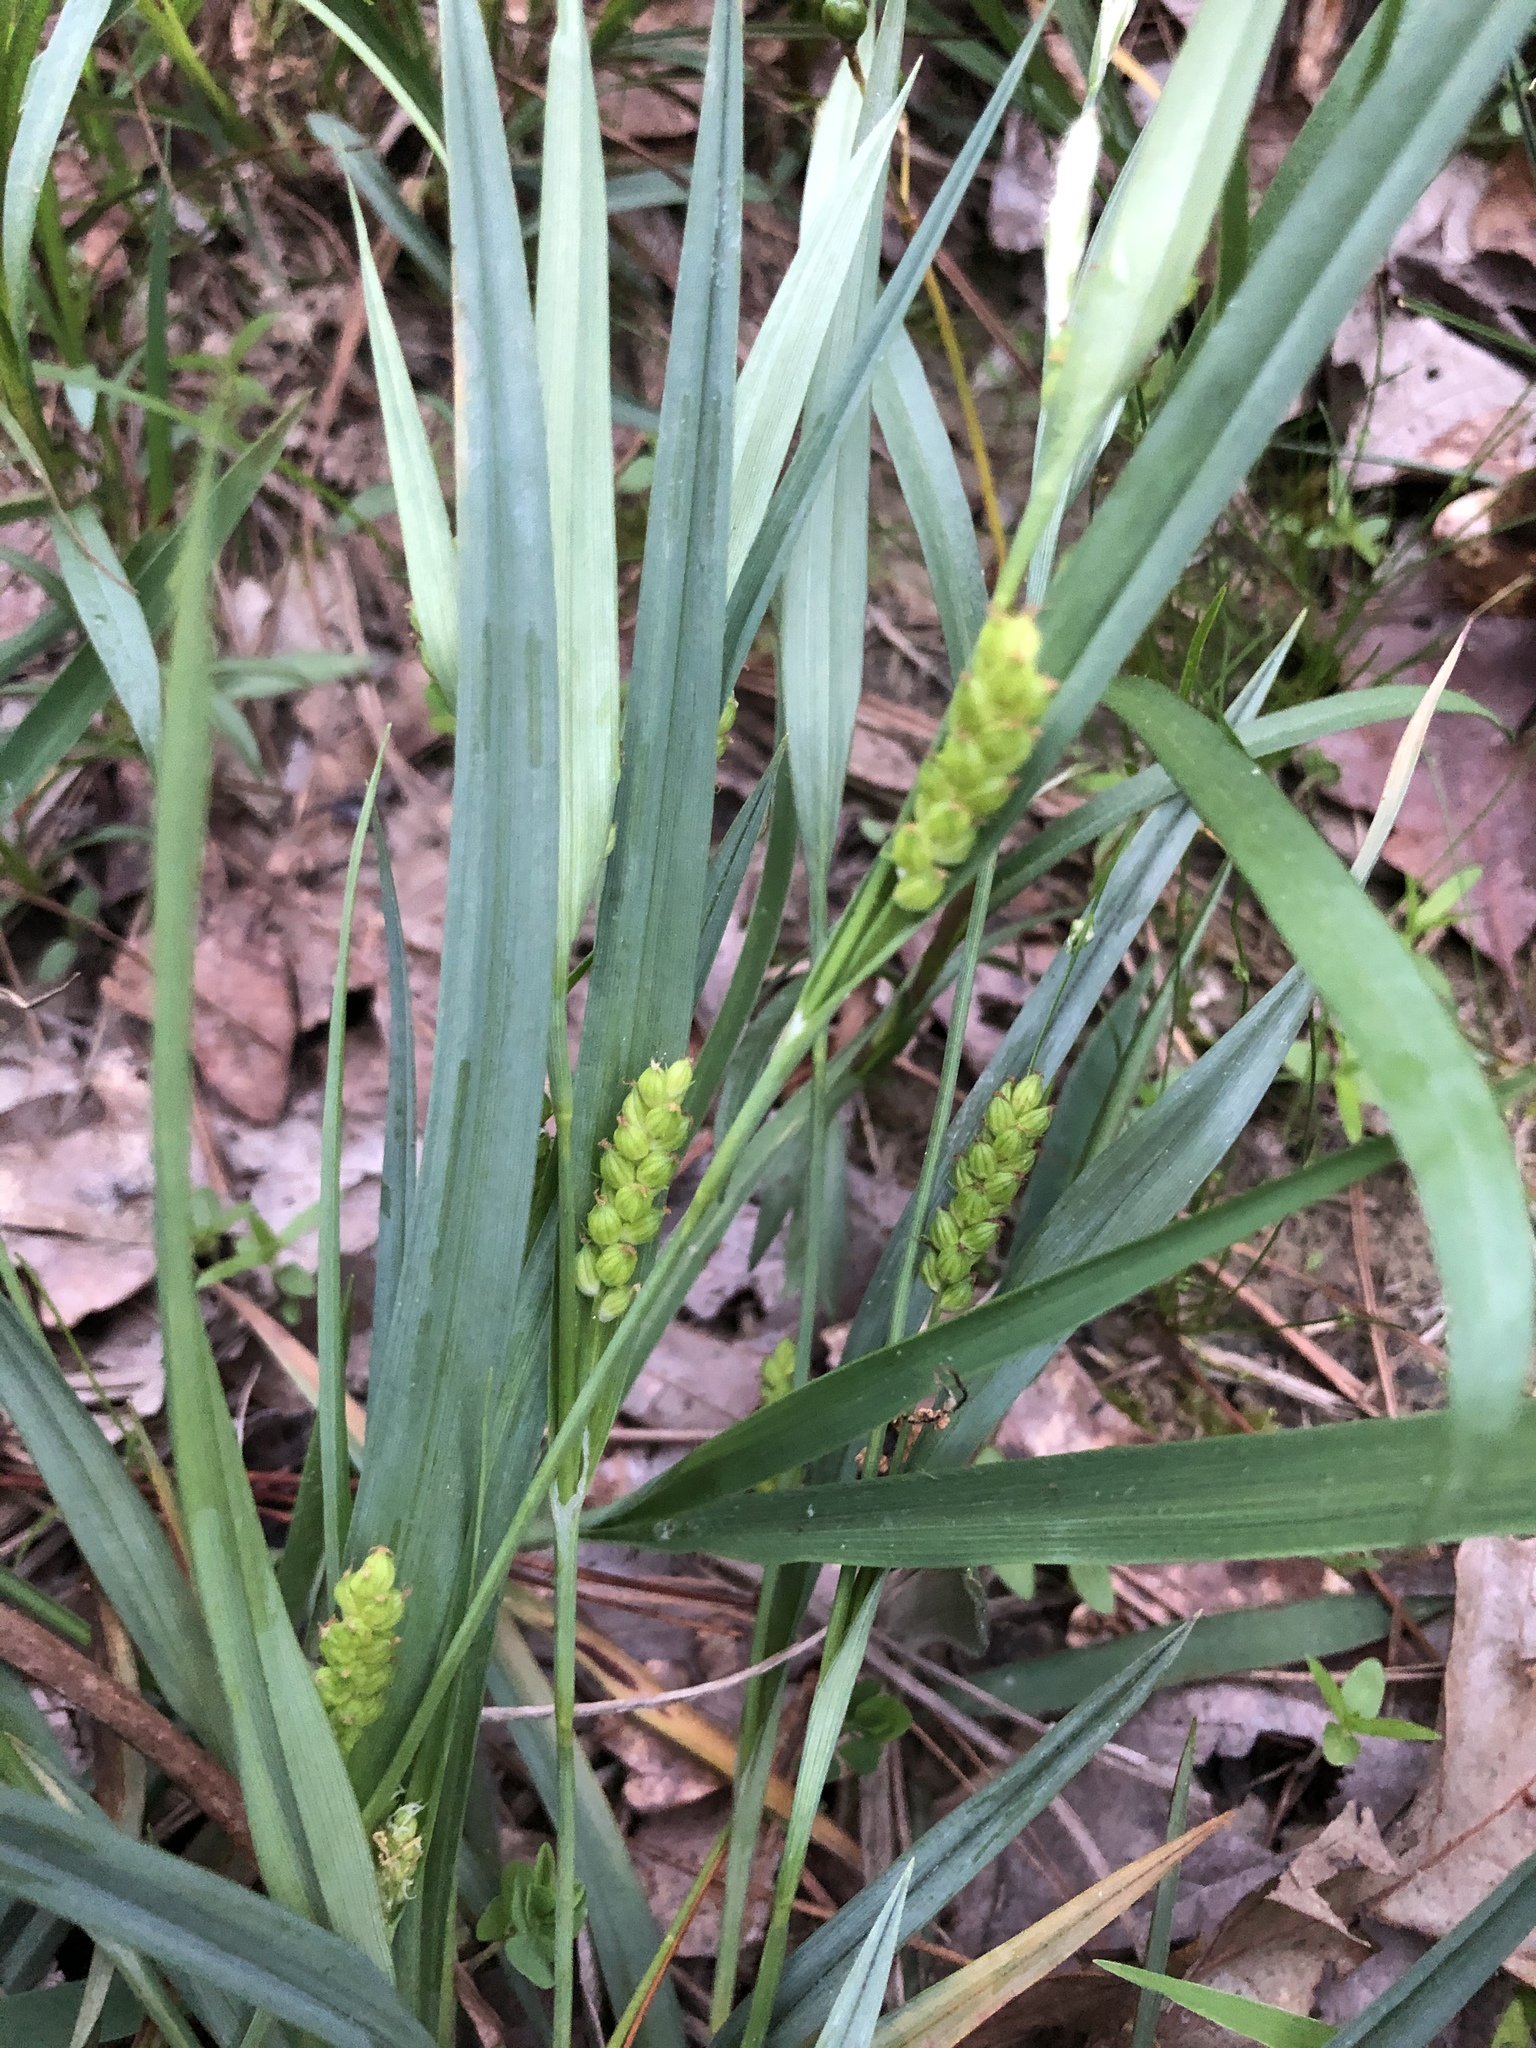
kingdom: Plantae
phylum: Tracheophyta
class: Liliopsida
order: Poales
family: Cyperaceae
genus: Carex
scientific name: Carex glaucodea
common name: Blue sedge
